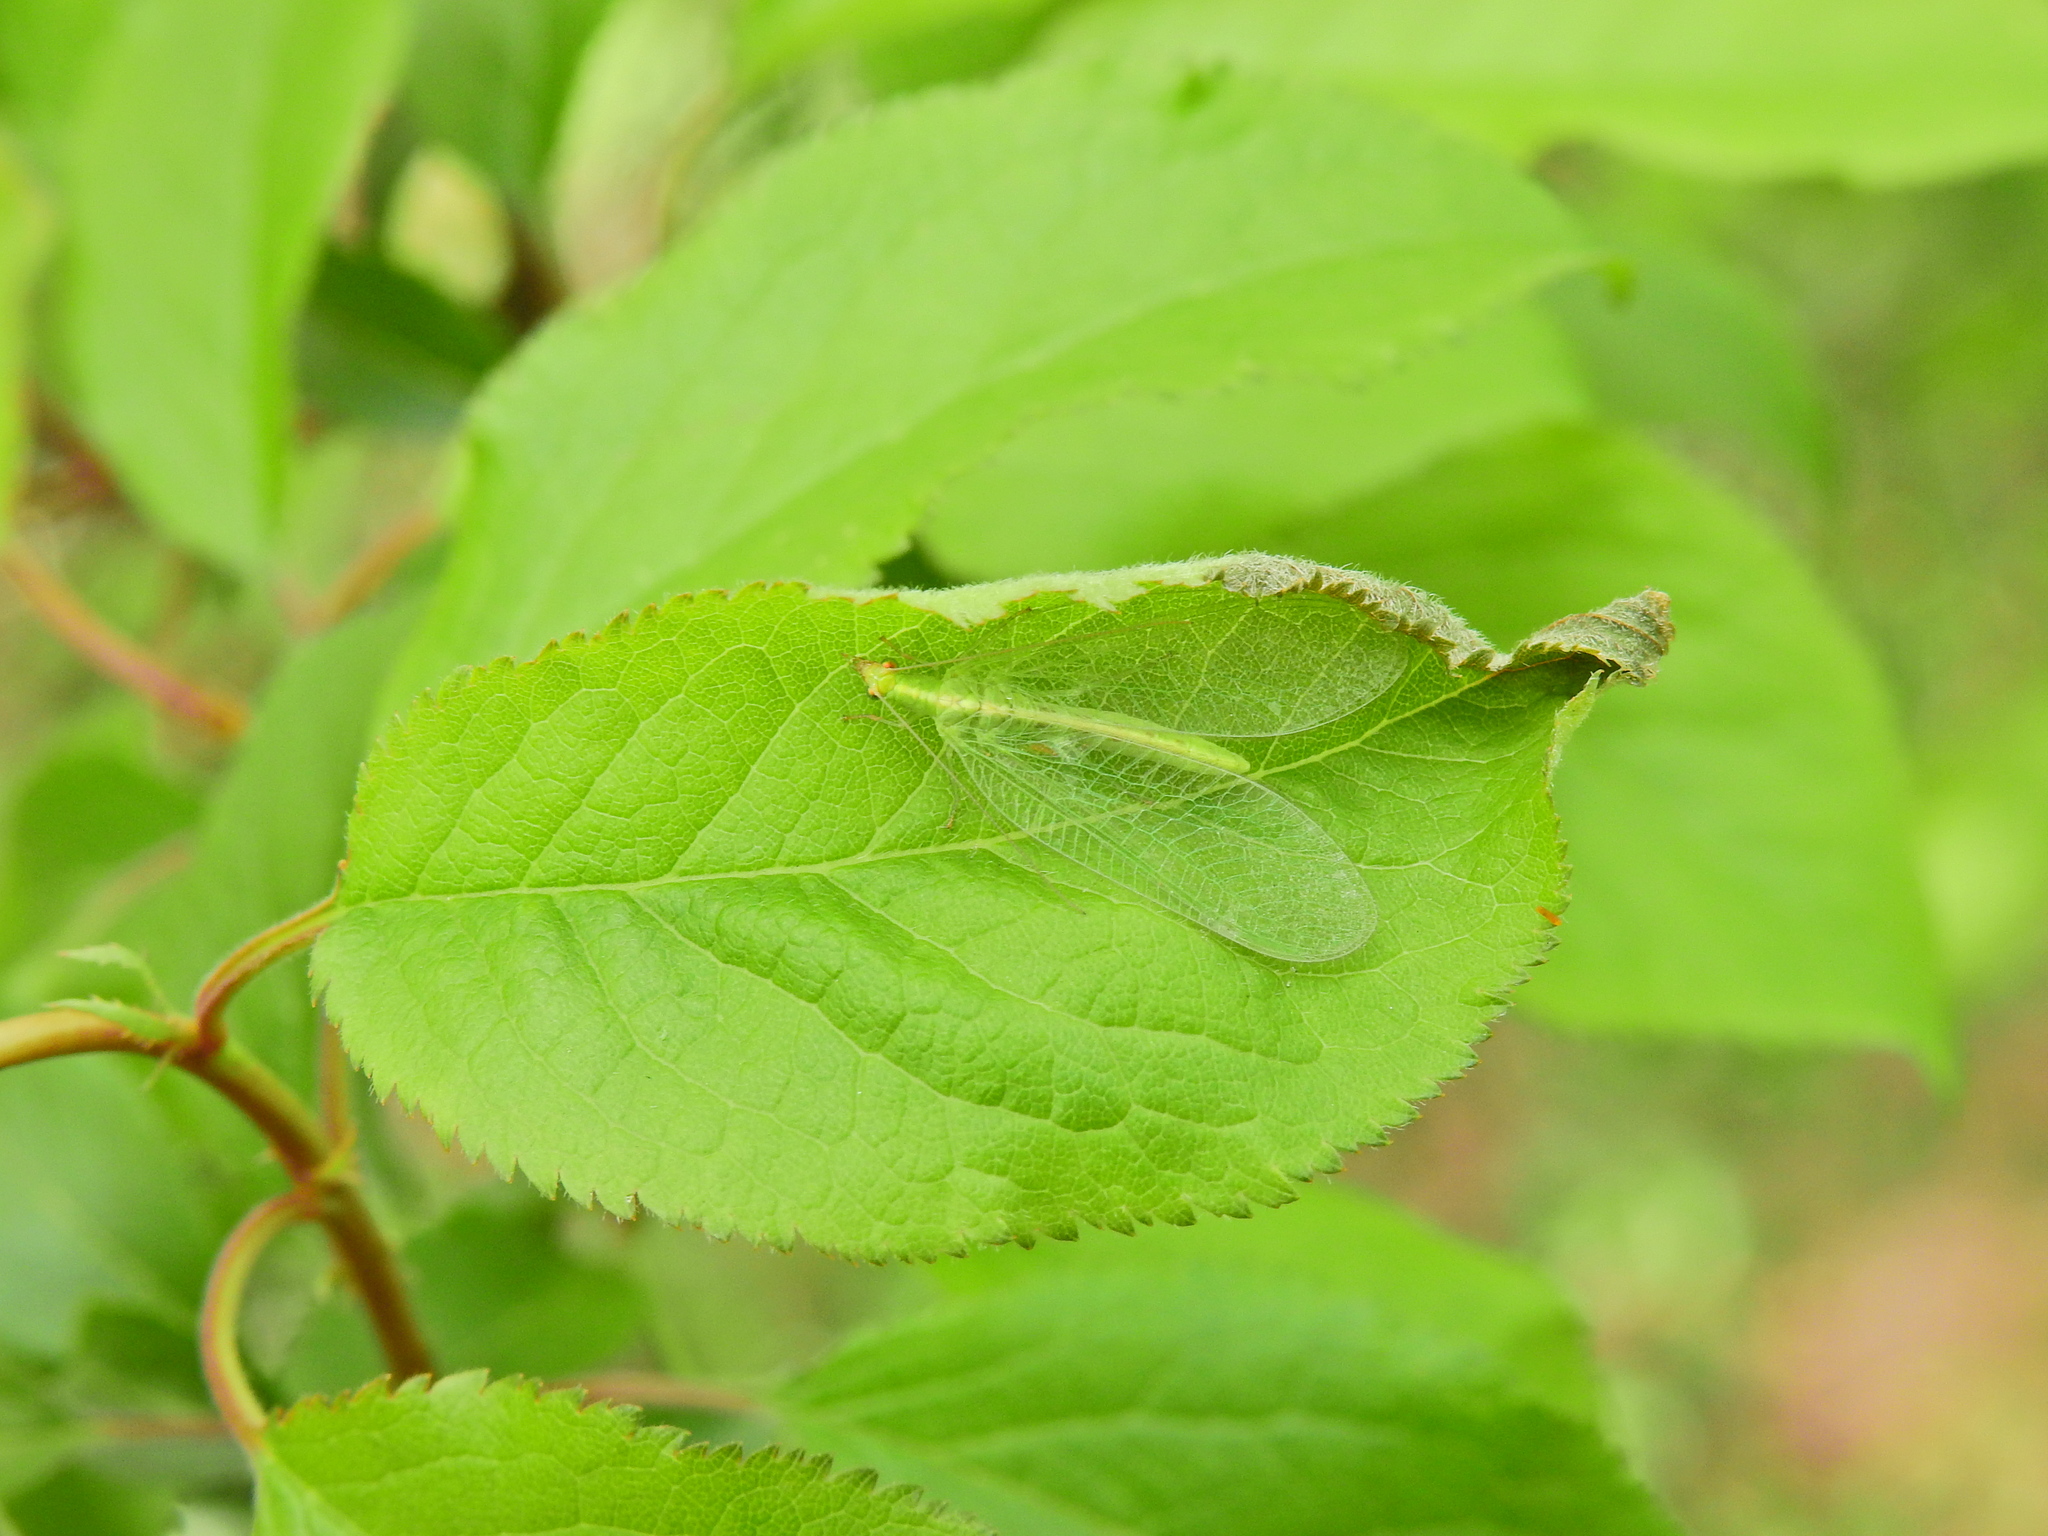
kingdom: Animalia
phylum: Arthropoda
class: Insecta
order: Neuroptera
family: Chrysopidae
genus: Chrysoperla
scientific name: Chrysoperla
